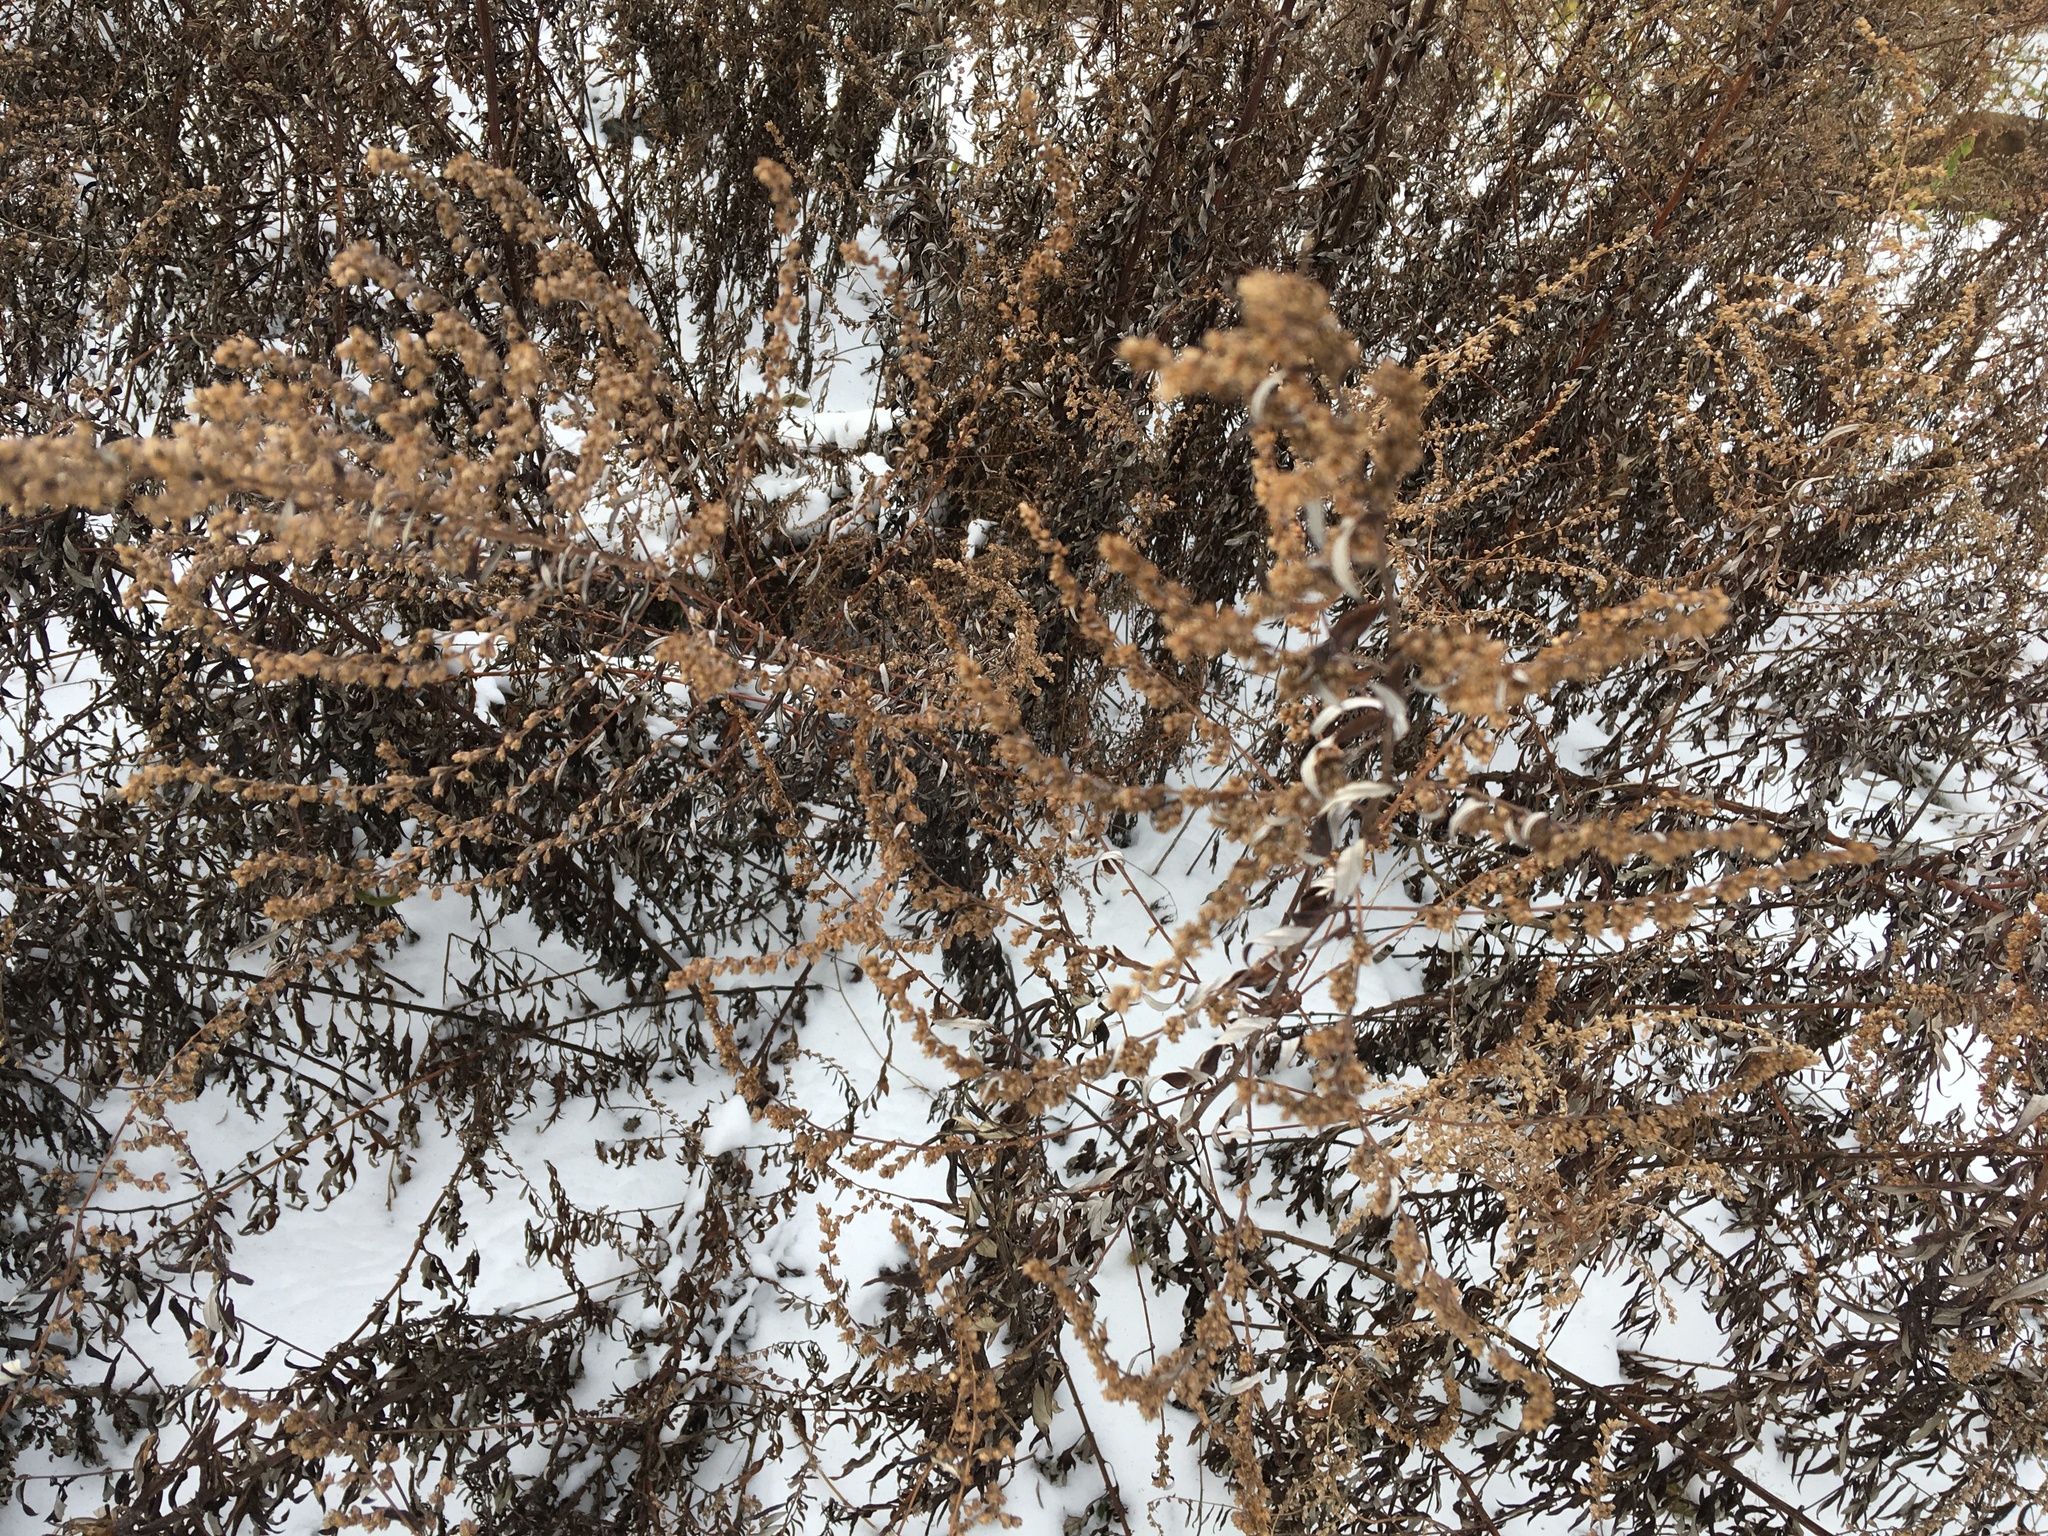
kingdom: Plantae
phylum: Tracheophyta
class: Magnoliopsida
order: Asterales
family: Asteraceae
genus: Artemisia
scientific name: Artemisia vulgaris
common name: Mugwort
